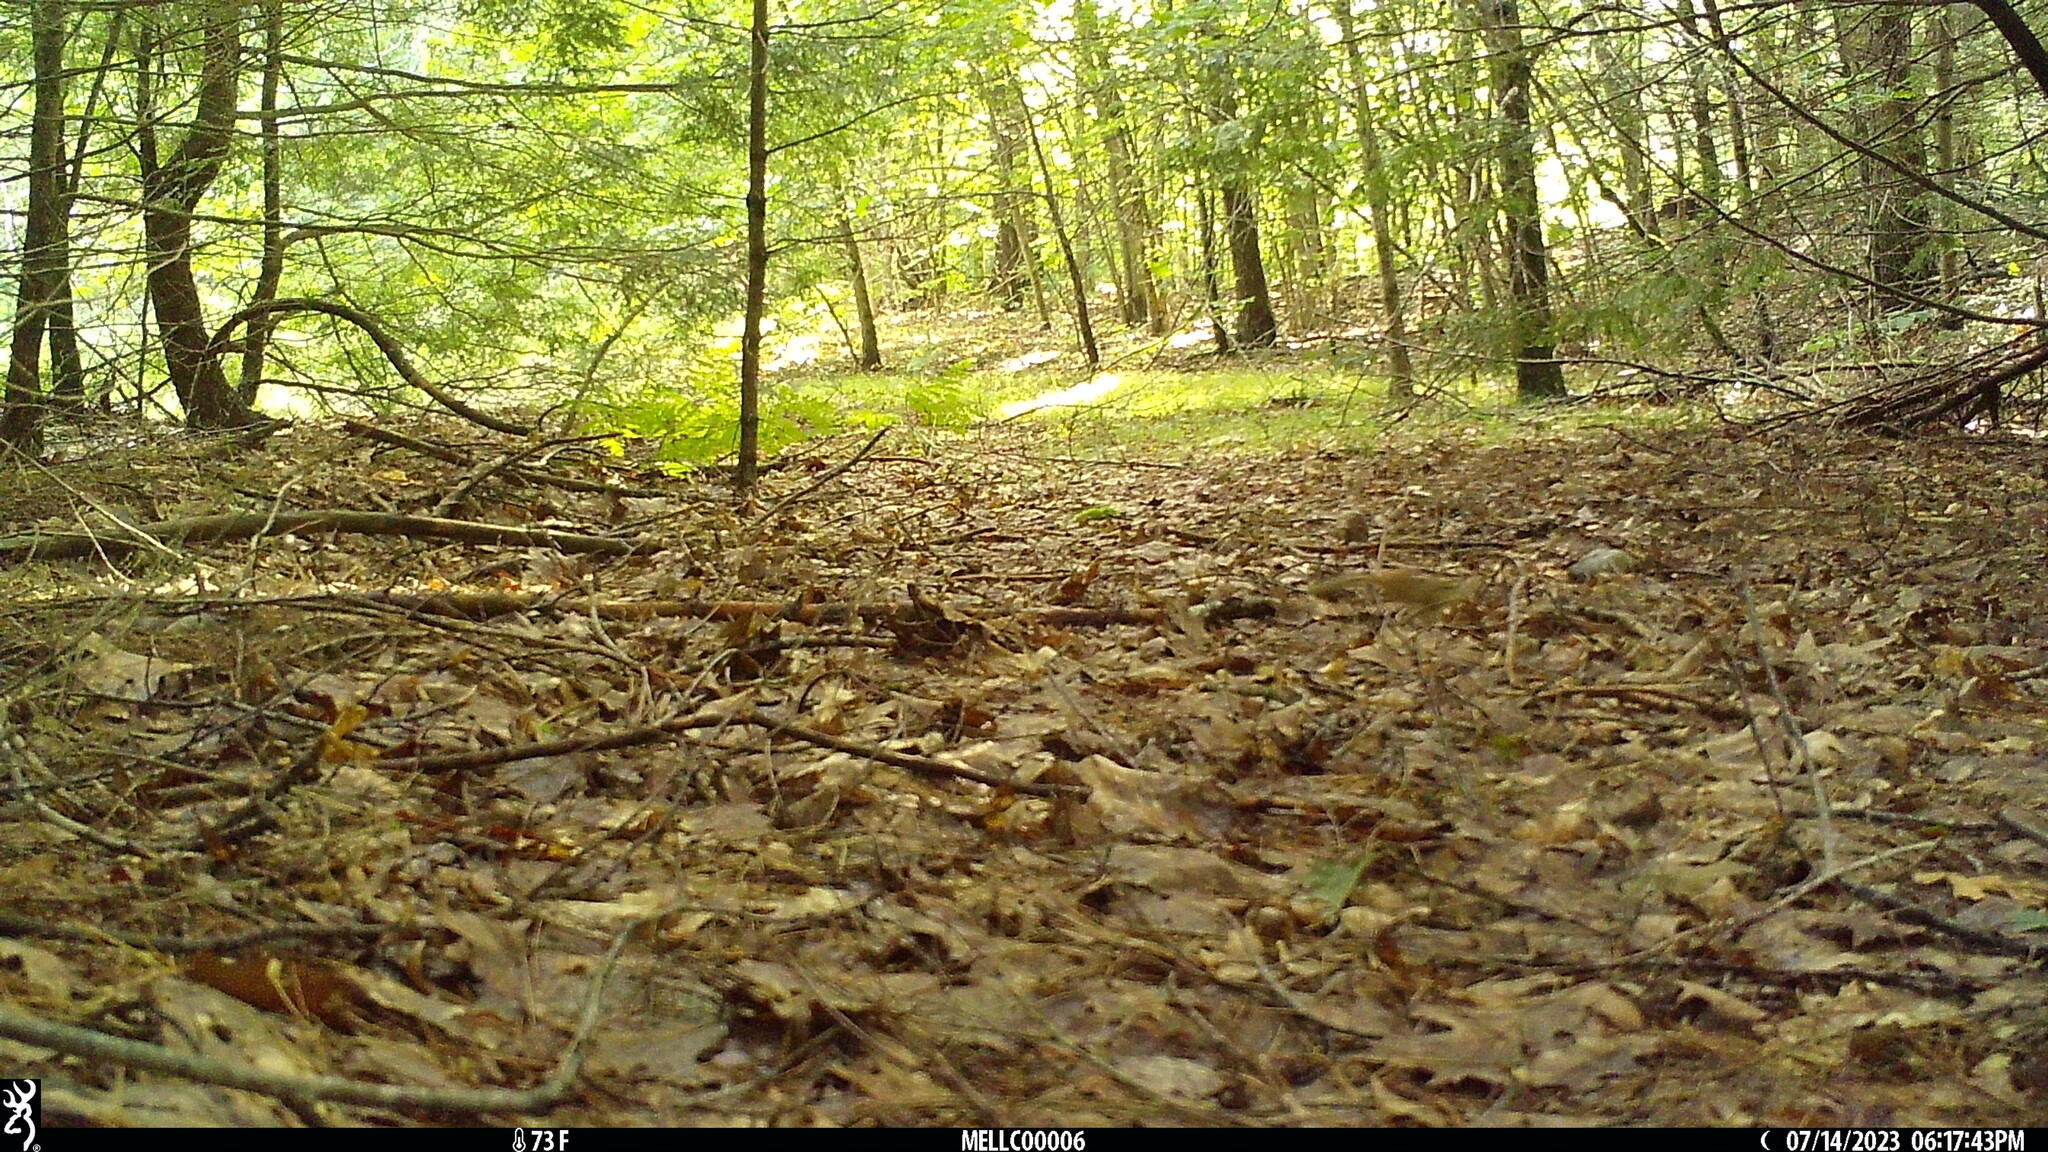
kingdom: Animalia
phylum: Chordata
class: Mammalia
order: Rodentia
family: Sciuridae
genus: Tamias
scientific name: Tamias striatus
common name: Eastern chipmunk
